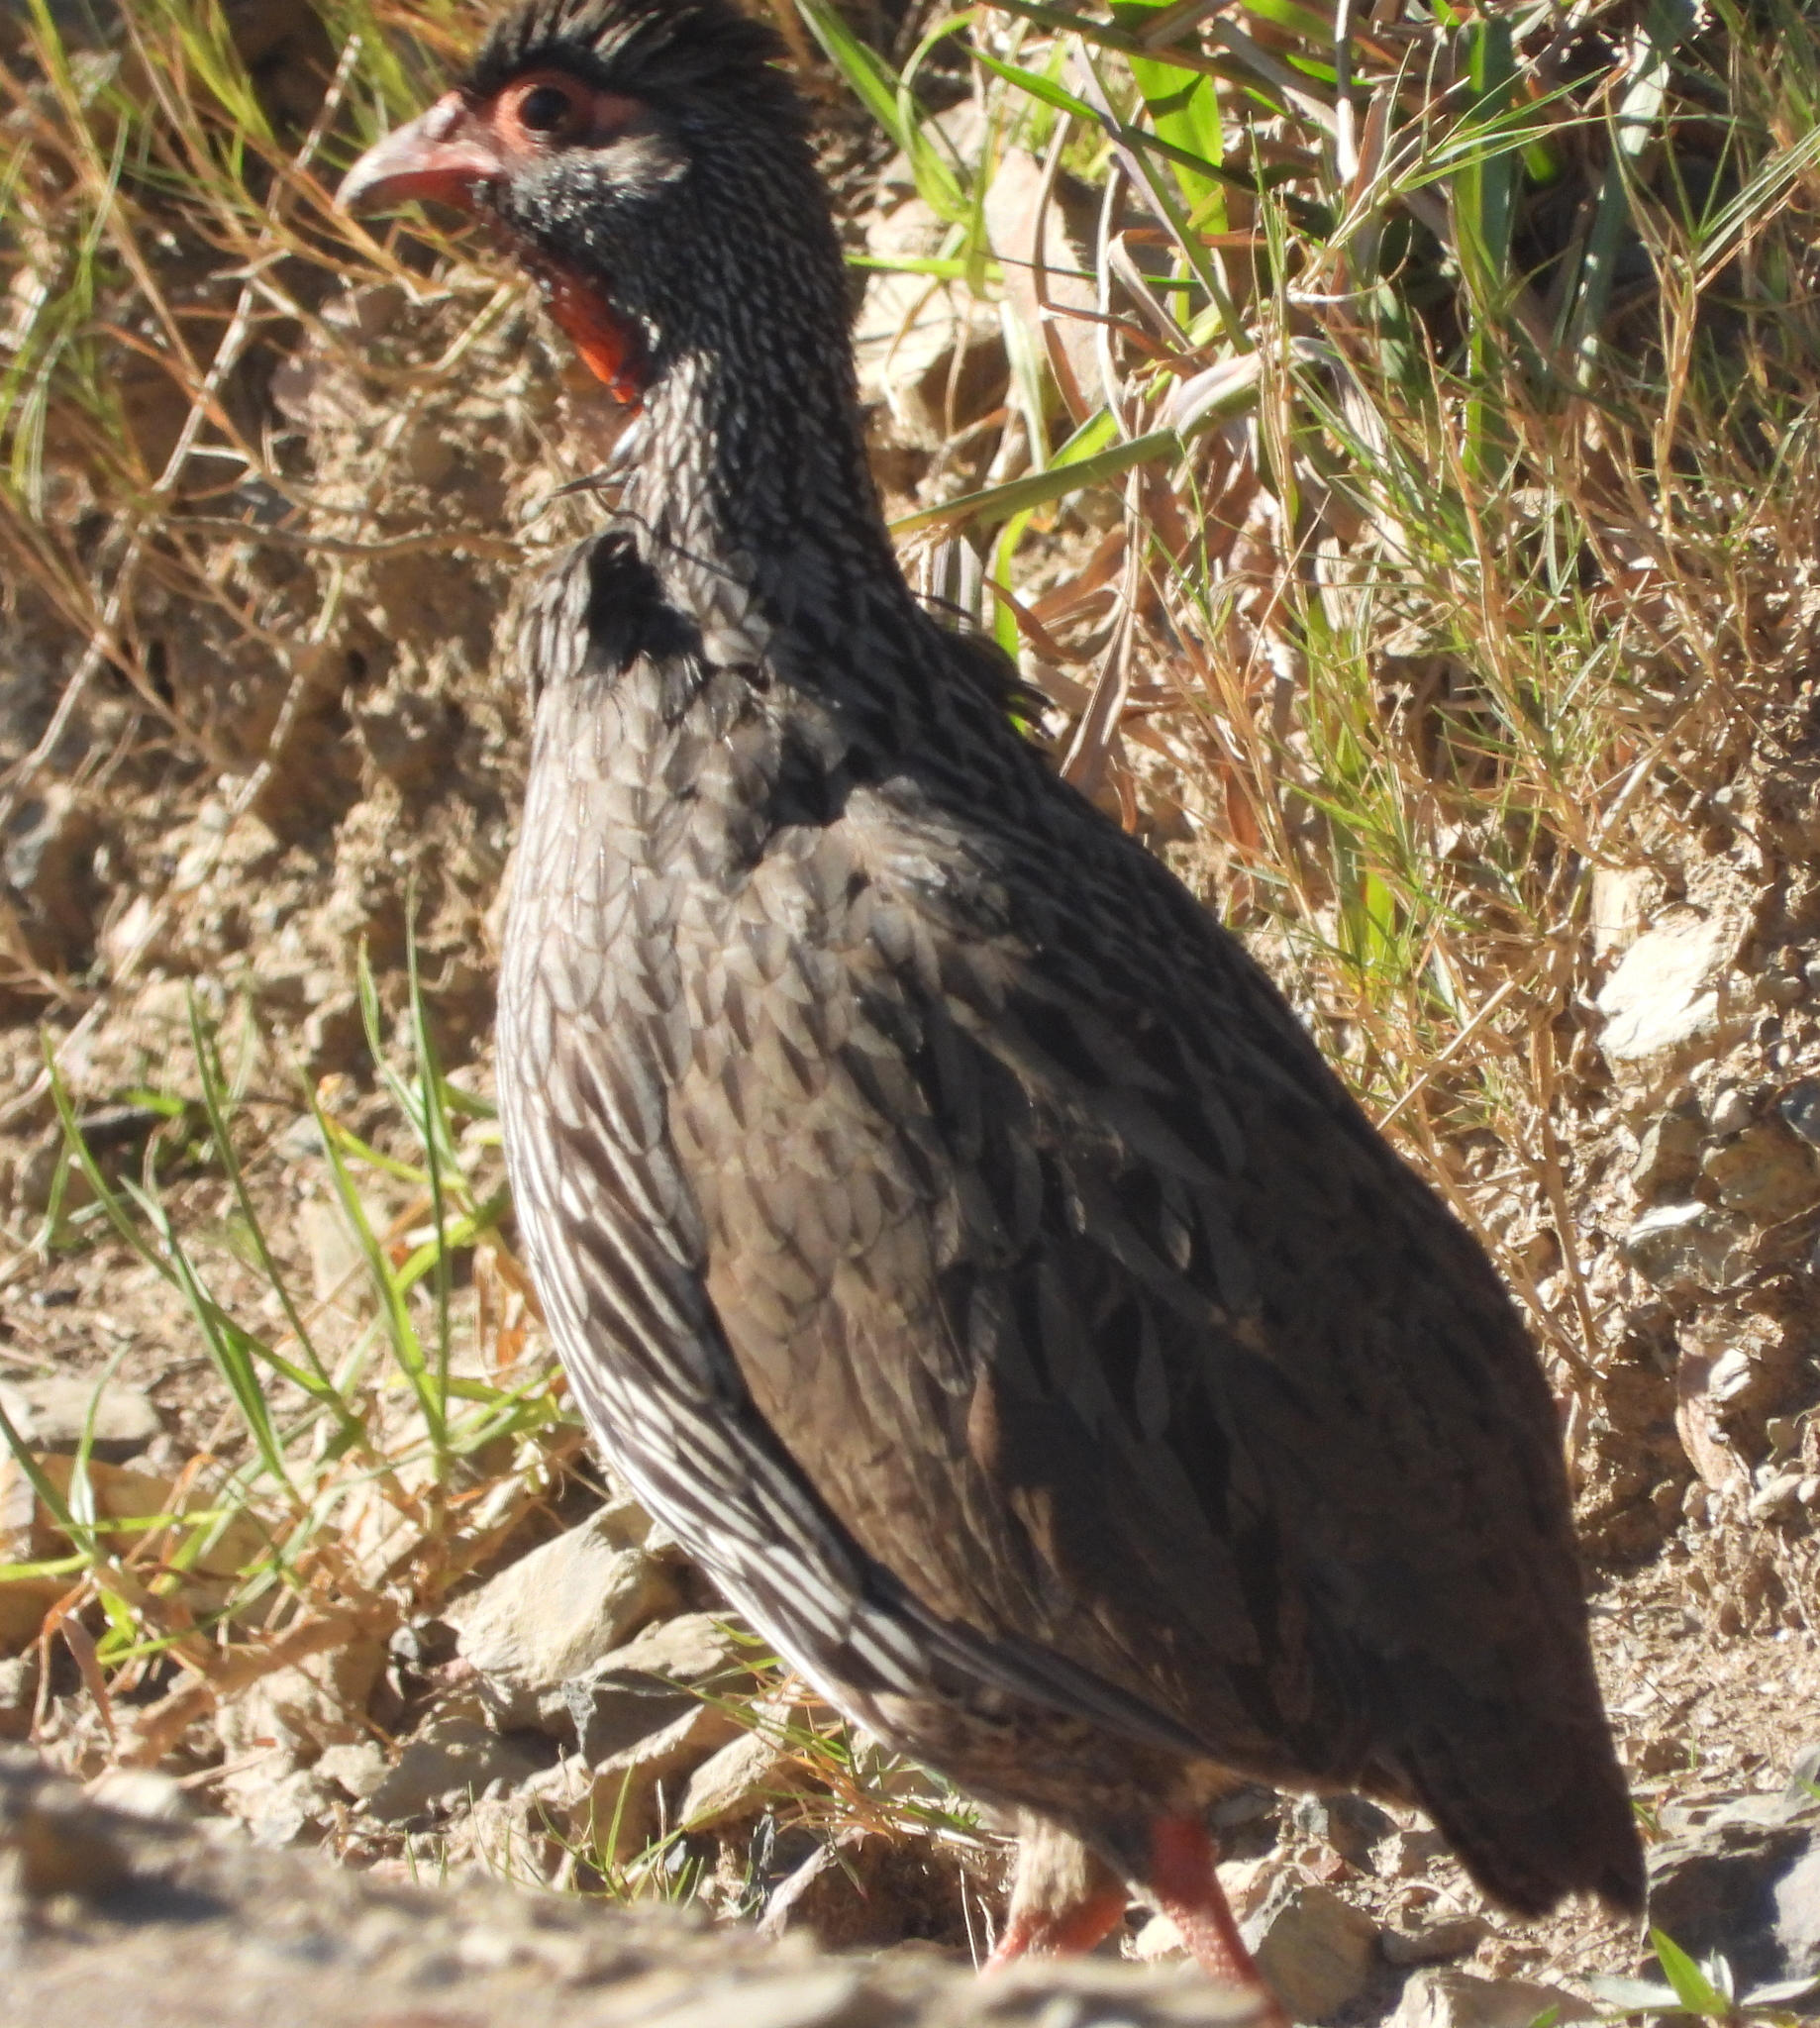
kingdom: Animalia
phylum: Chordata
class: Aves
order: Galliformes
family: Phasianidae
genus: Pternistis
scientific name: Pternistis afer
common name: Red-necked spurfowl
